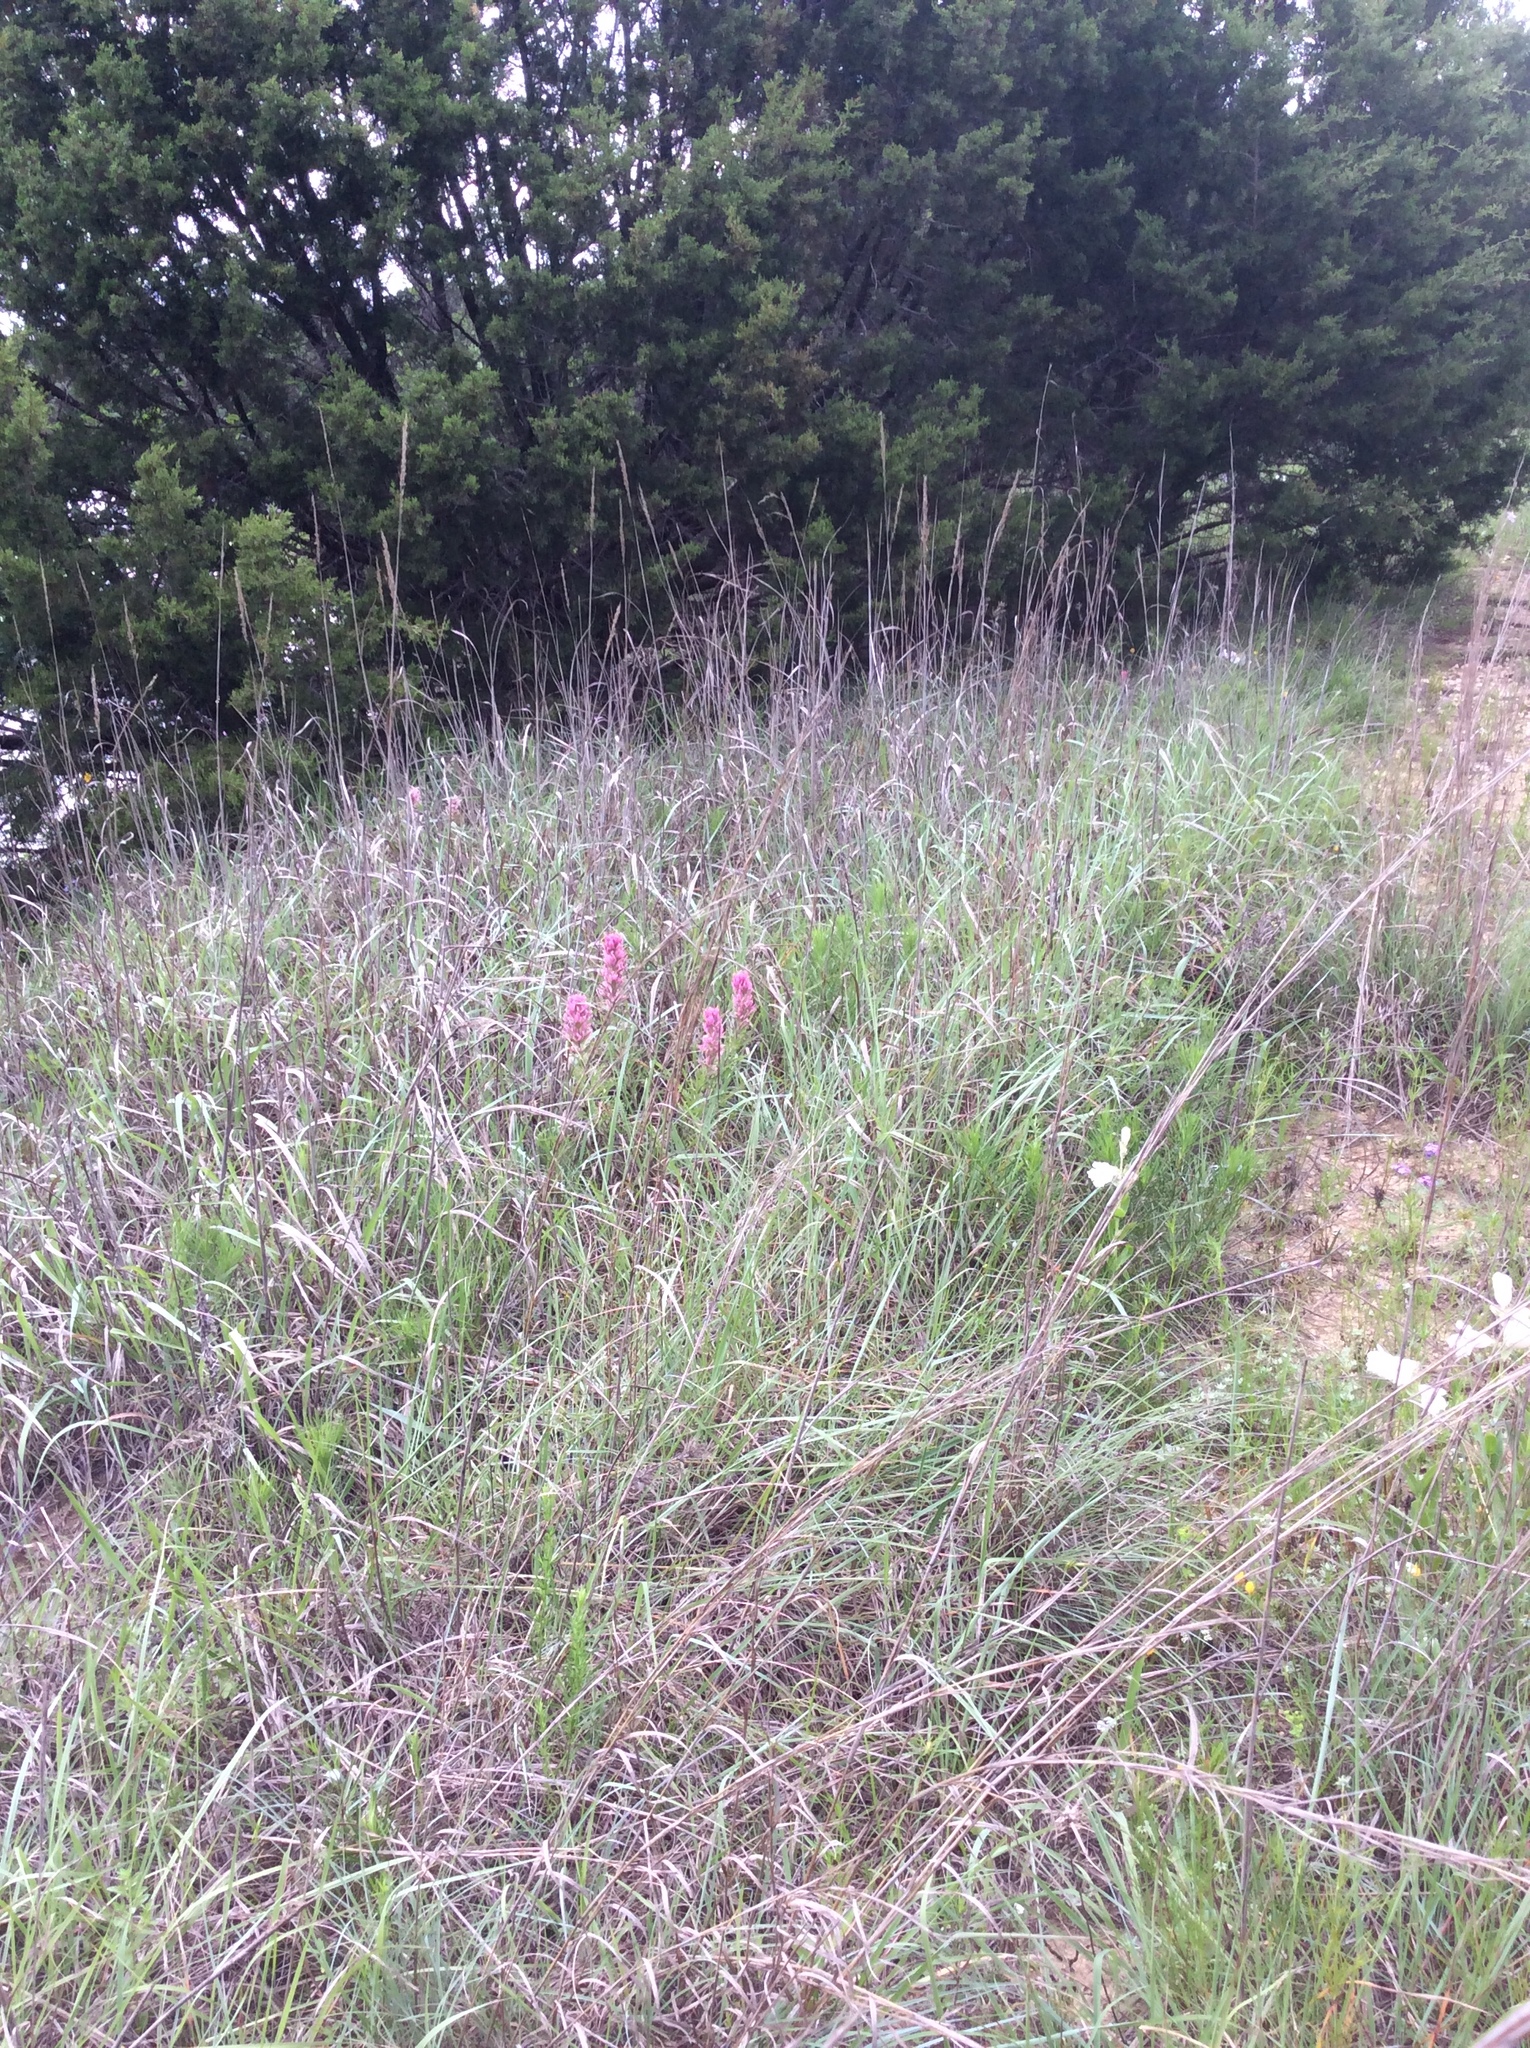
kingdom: Plantae
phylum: Tracheophyta
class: Magnoliopsida
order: Lamiales
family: Orobanchaceae
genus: Castilleja
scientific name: Castilleja purpurea
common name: Plains paintbrush
